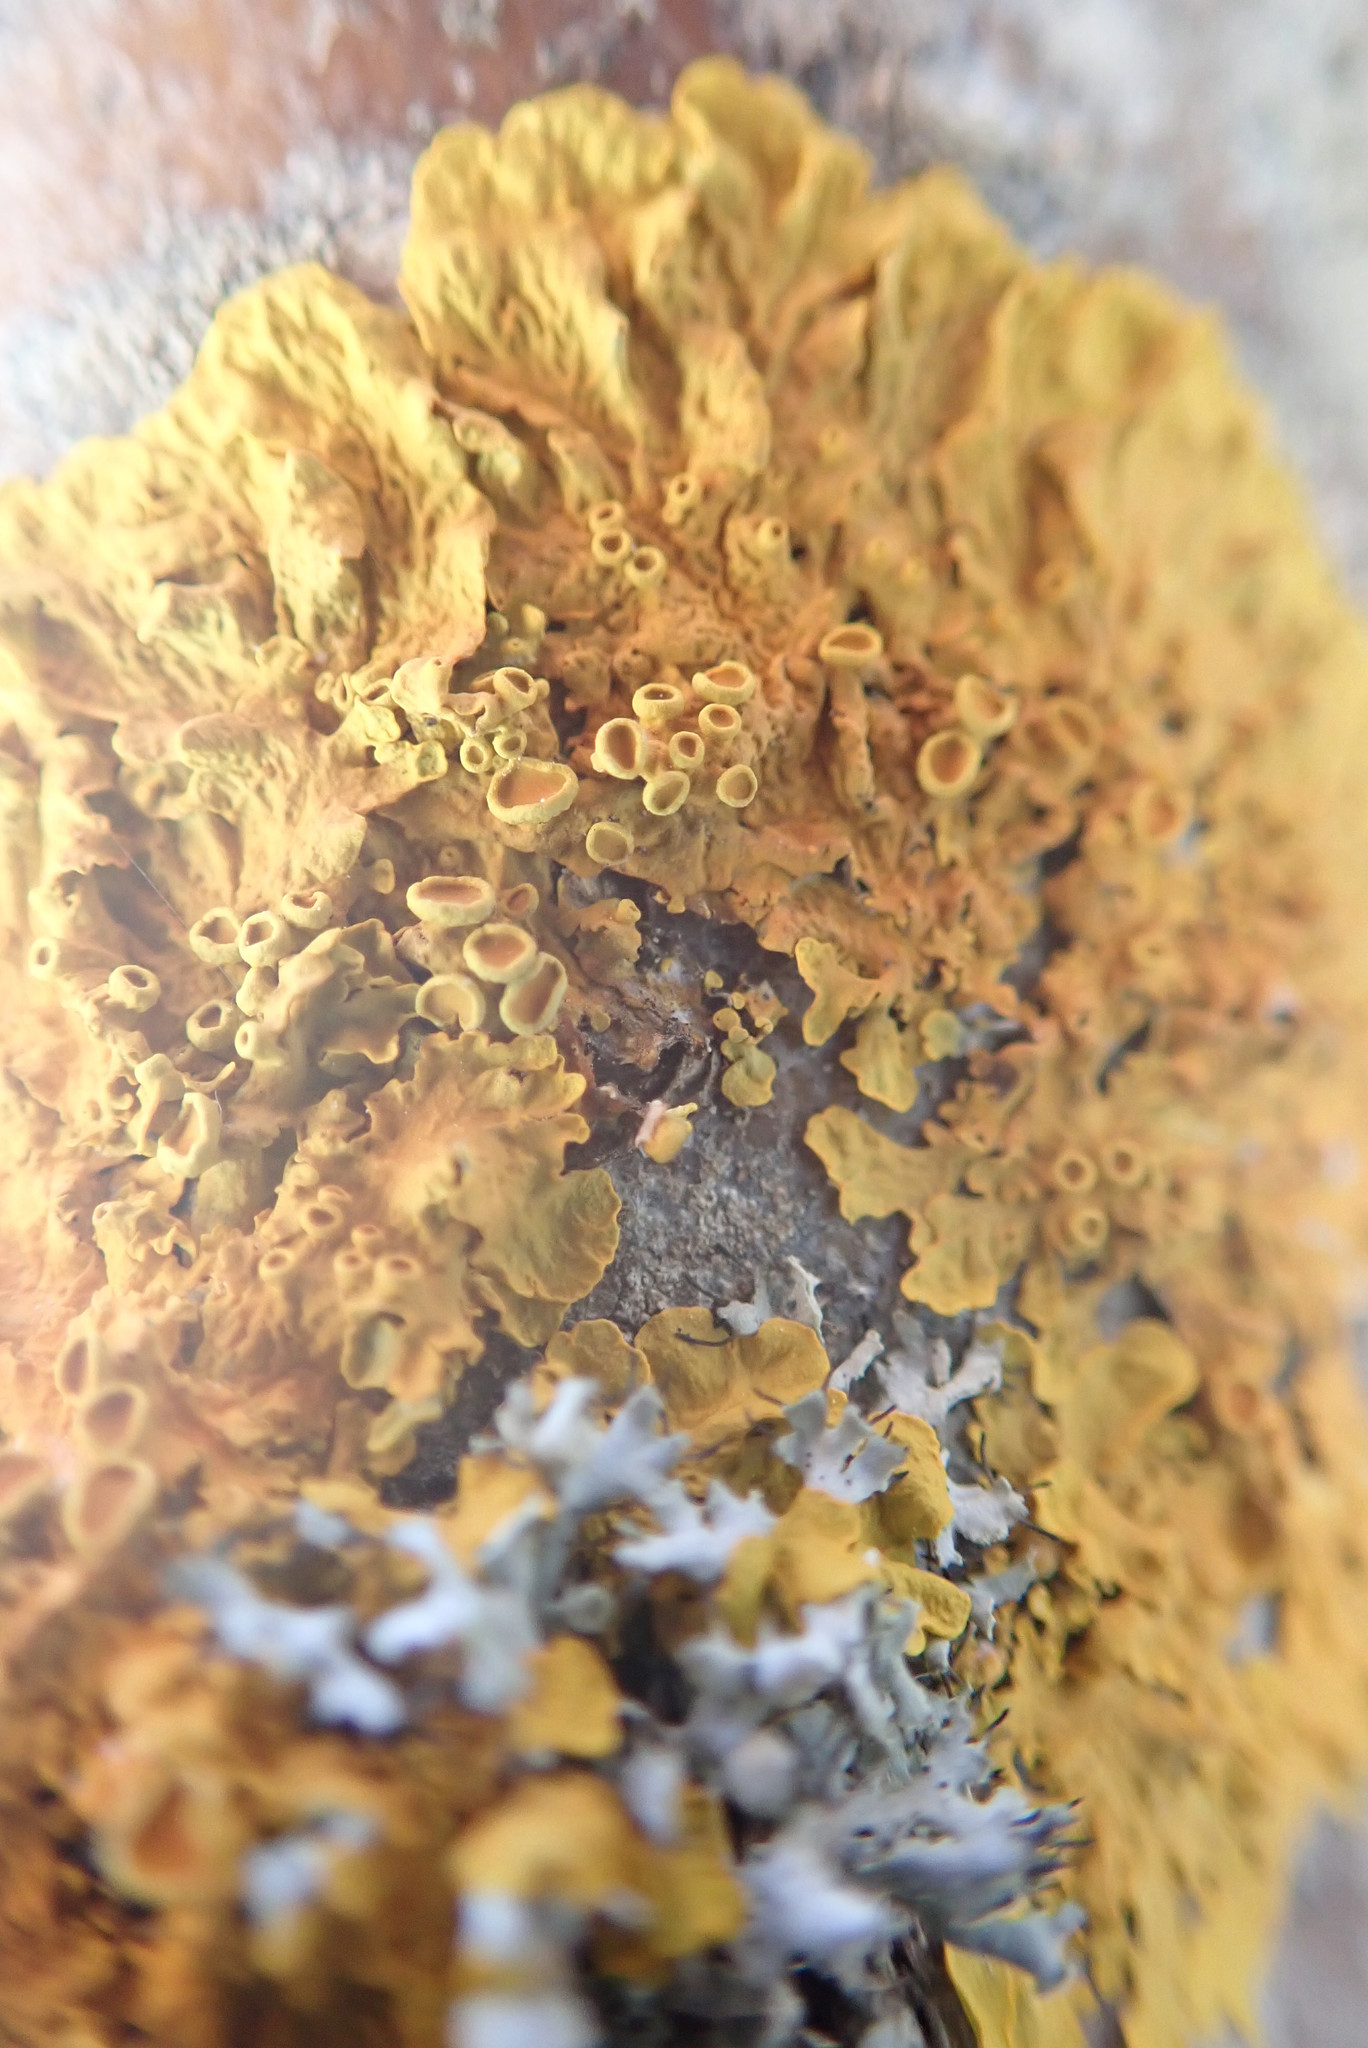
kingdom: Fungi
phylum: Ascomycota
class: Lecanoromycetes
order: Teloschistales
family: Teloschistaceae
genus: Xanthoria
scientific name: Xanthoria parietina
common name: Common orange lichen
